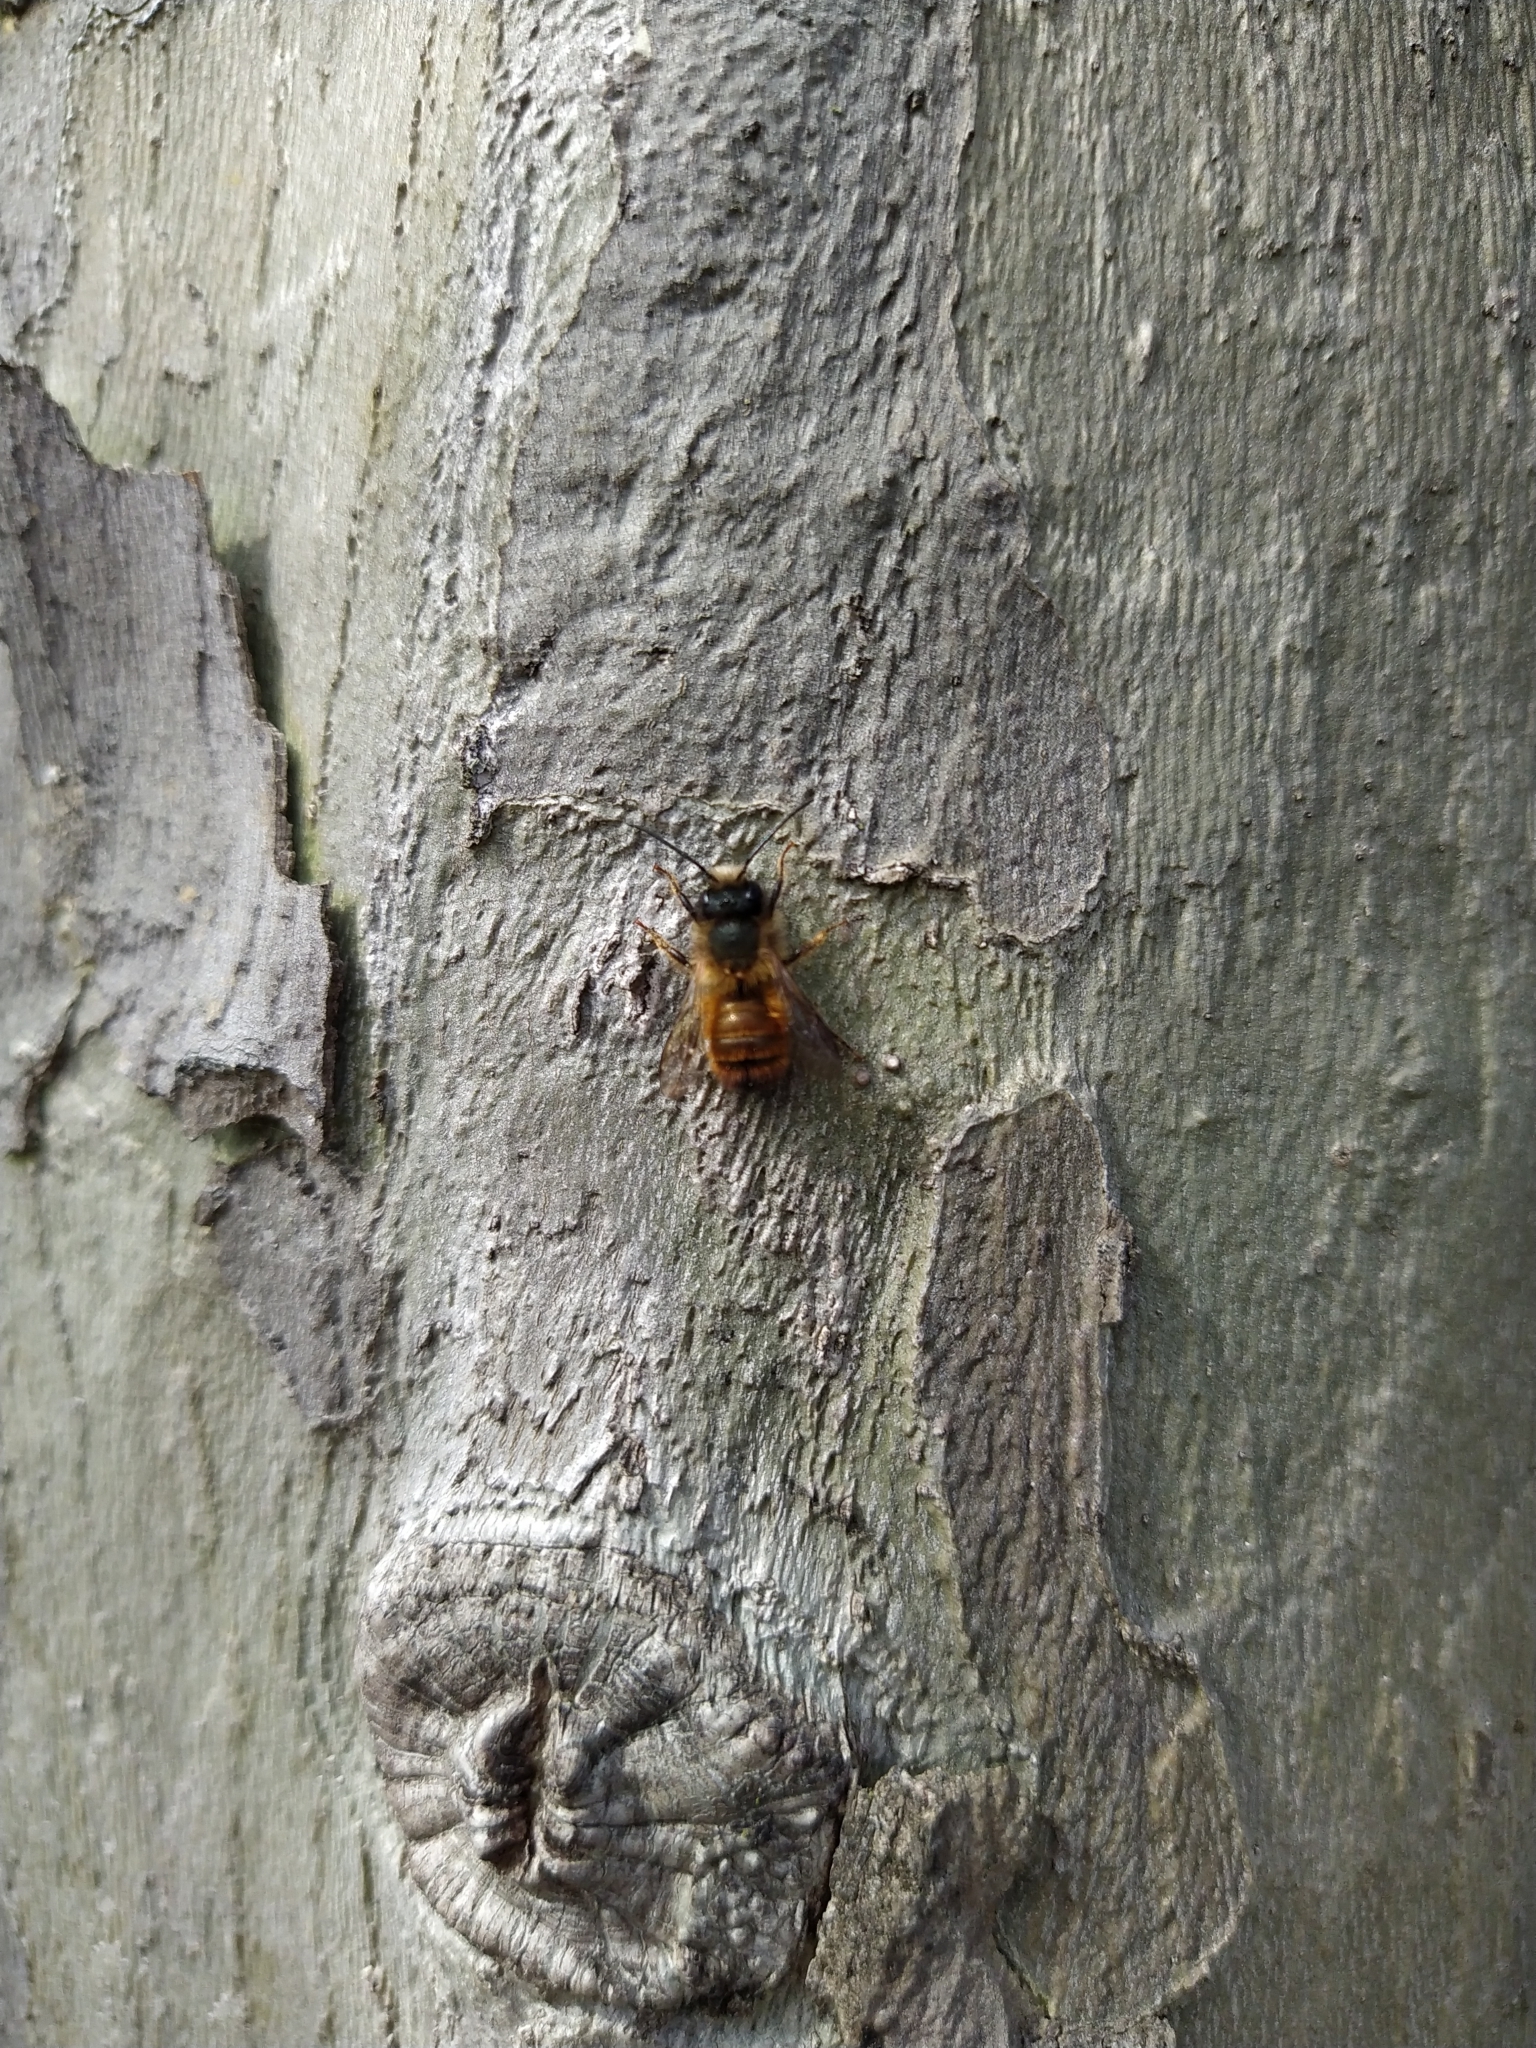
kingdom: Animalia
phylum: Arthropoda
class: Insecta
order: Hymenoptera
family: Megachilidae
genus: Osmia
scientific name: Osmia bicornis
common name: Red mason bee
